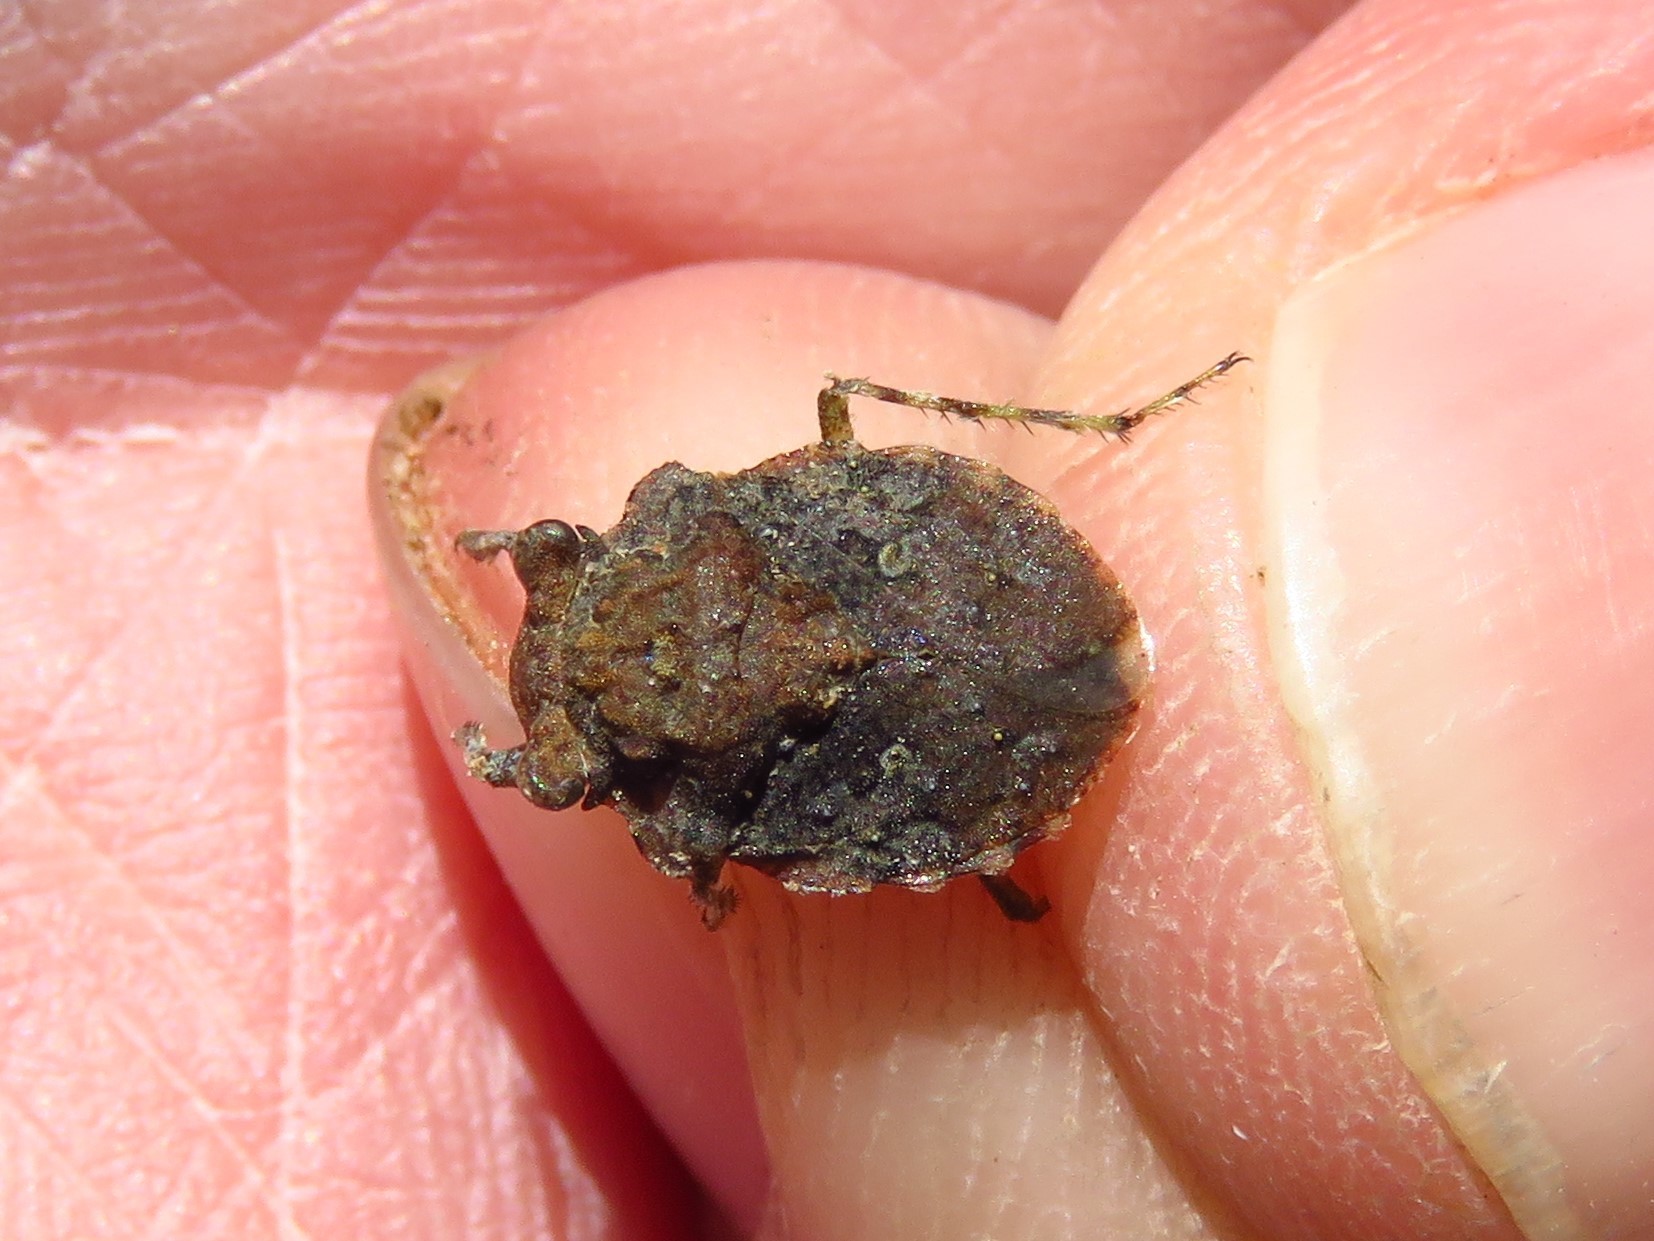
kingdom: Animalia
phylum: Arthropoda
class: Insecta
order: Hemiptera
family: Gelastocoridae
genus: Gelastocoris
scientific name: Gelastocoris oculatus
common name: Toad bug
